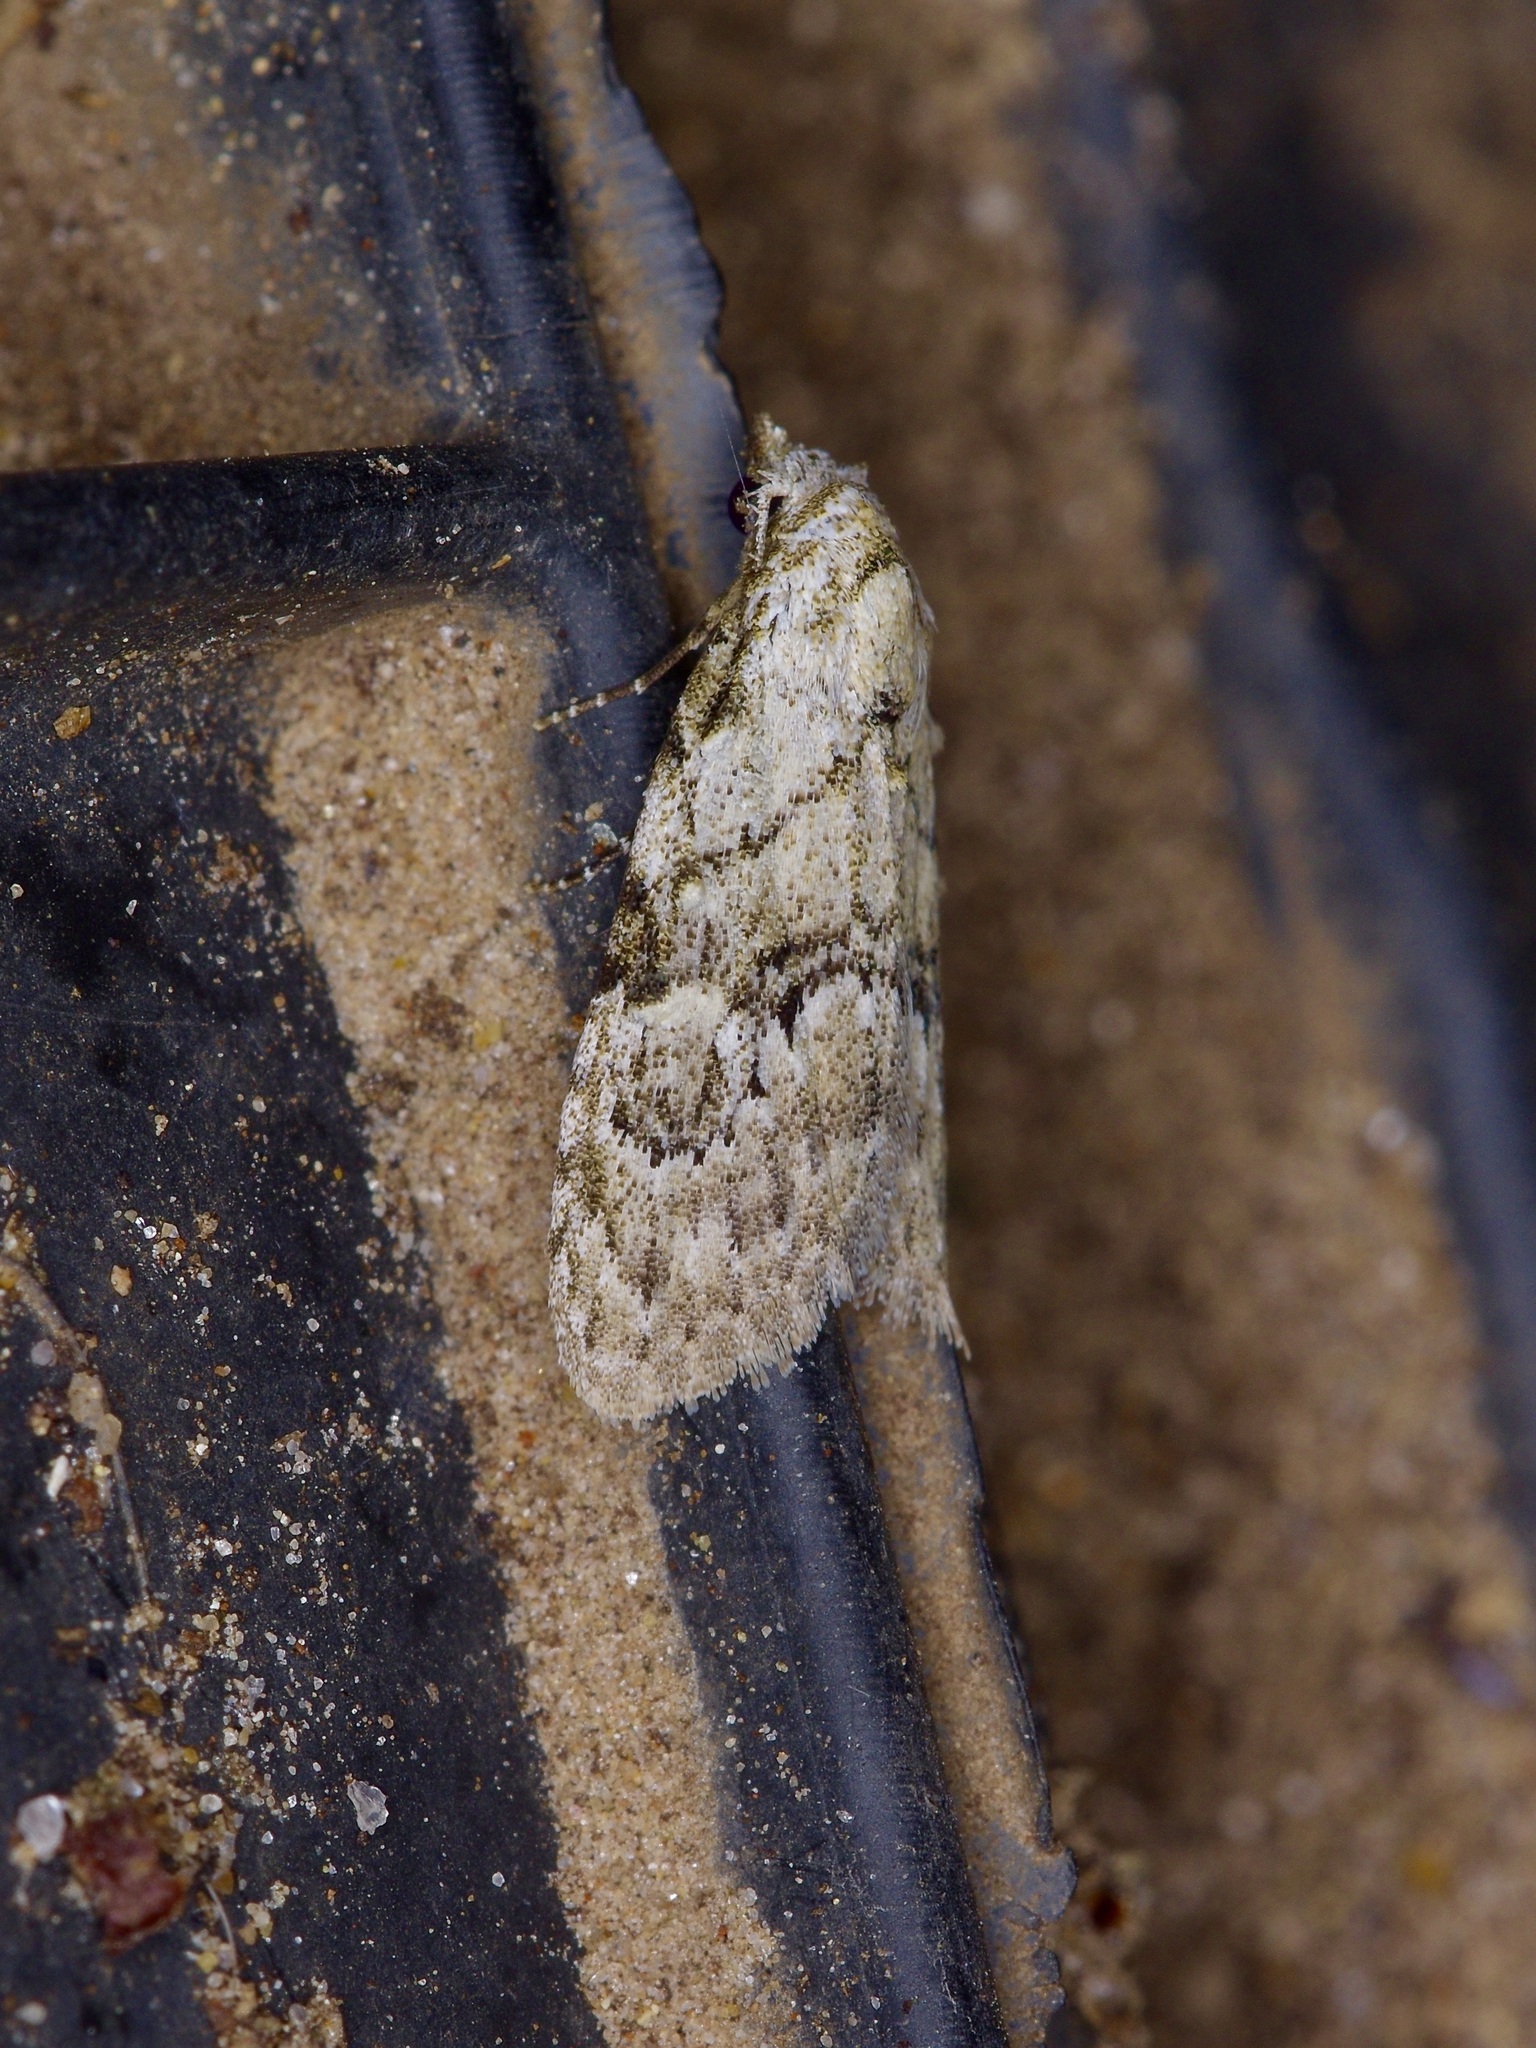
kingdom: Animalia
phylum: Arthropoda
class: Insecta
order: Lepidoptera
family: Nolidae
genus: Meganola
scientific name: Meganola minuscula
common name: Confused meganola moth
